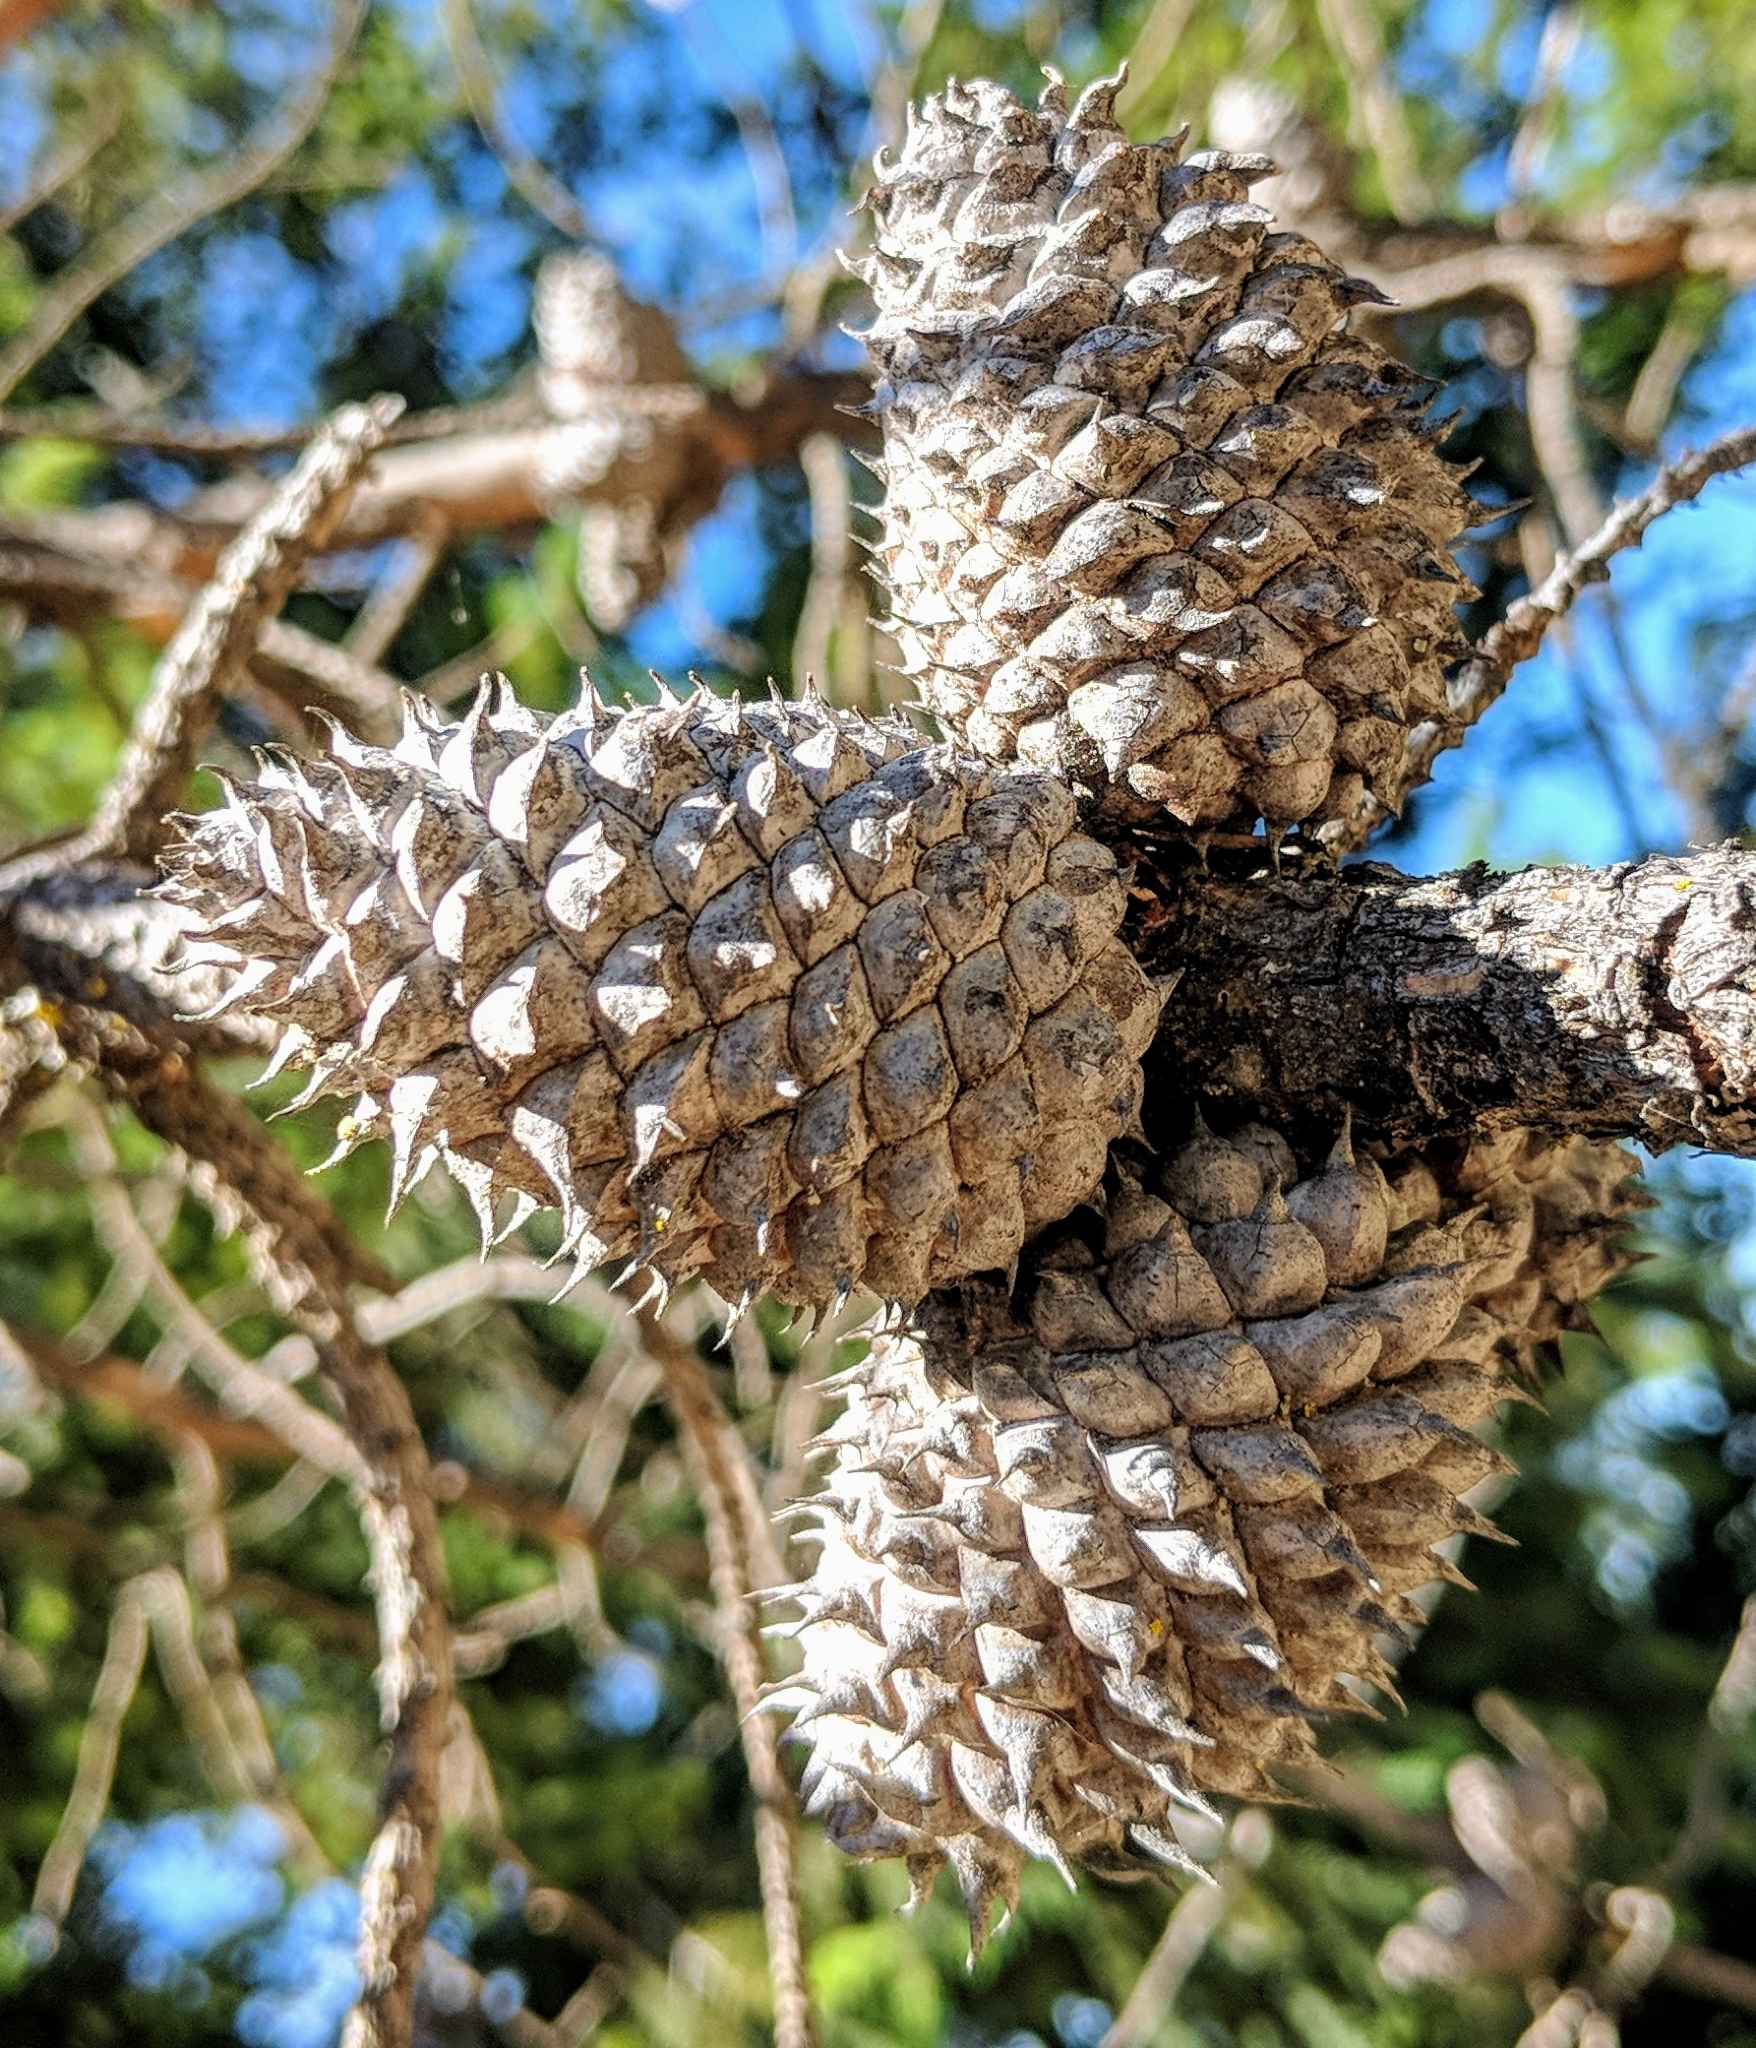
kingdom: Plantae
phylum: Tracheophyta
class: Pinopsida
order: Pinales
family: Pinaceae
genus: Pinus
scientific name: Pinus muricata
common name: Bishop pine
